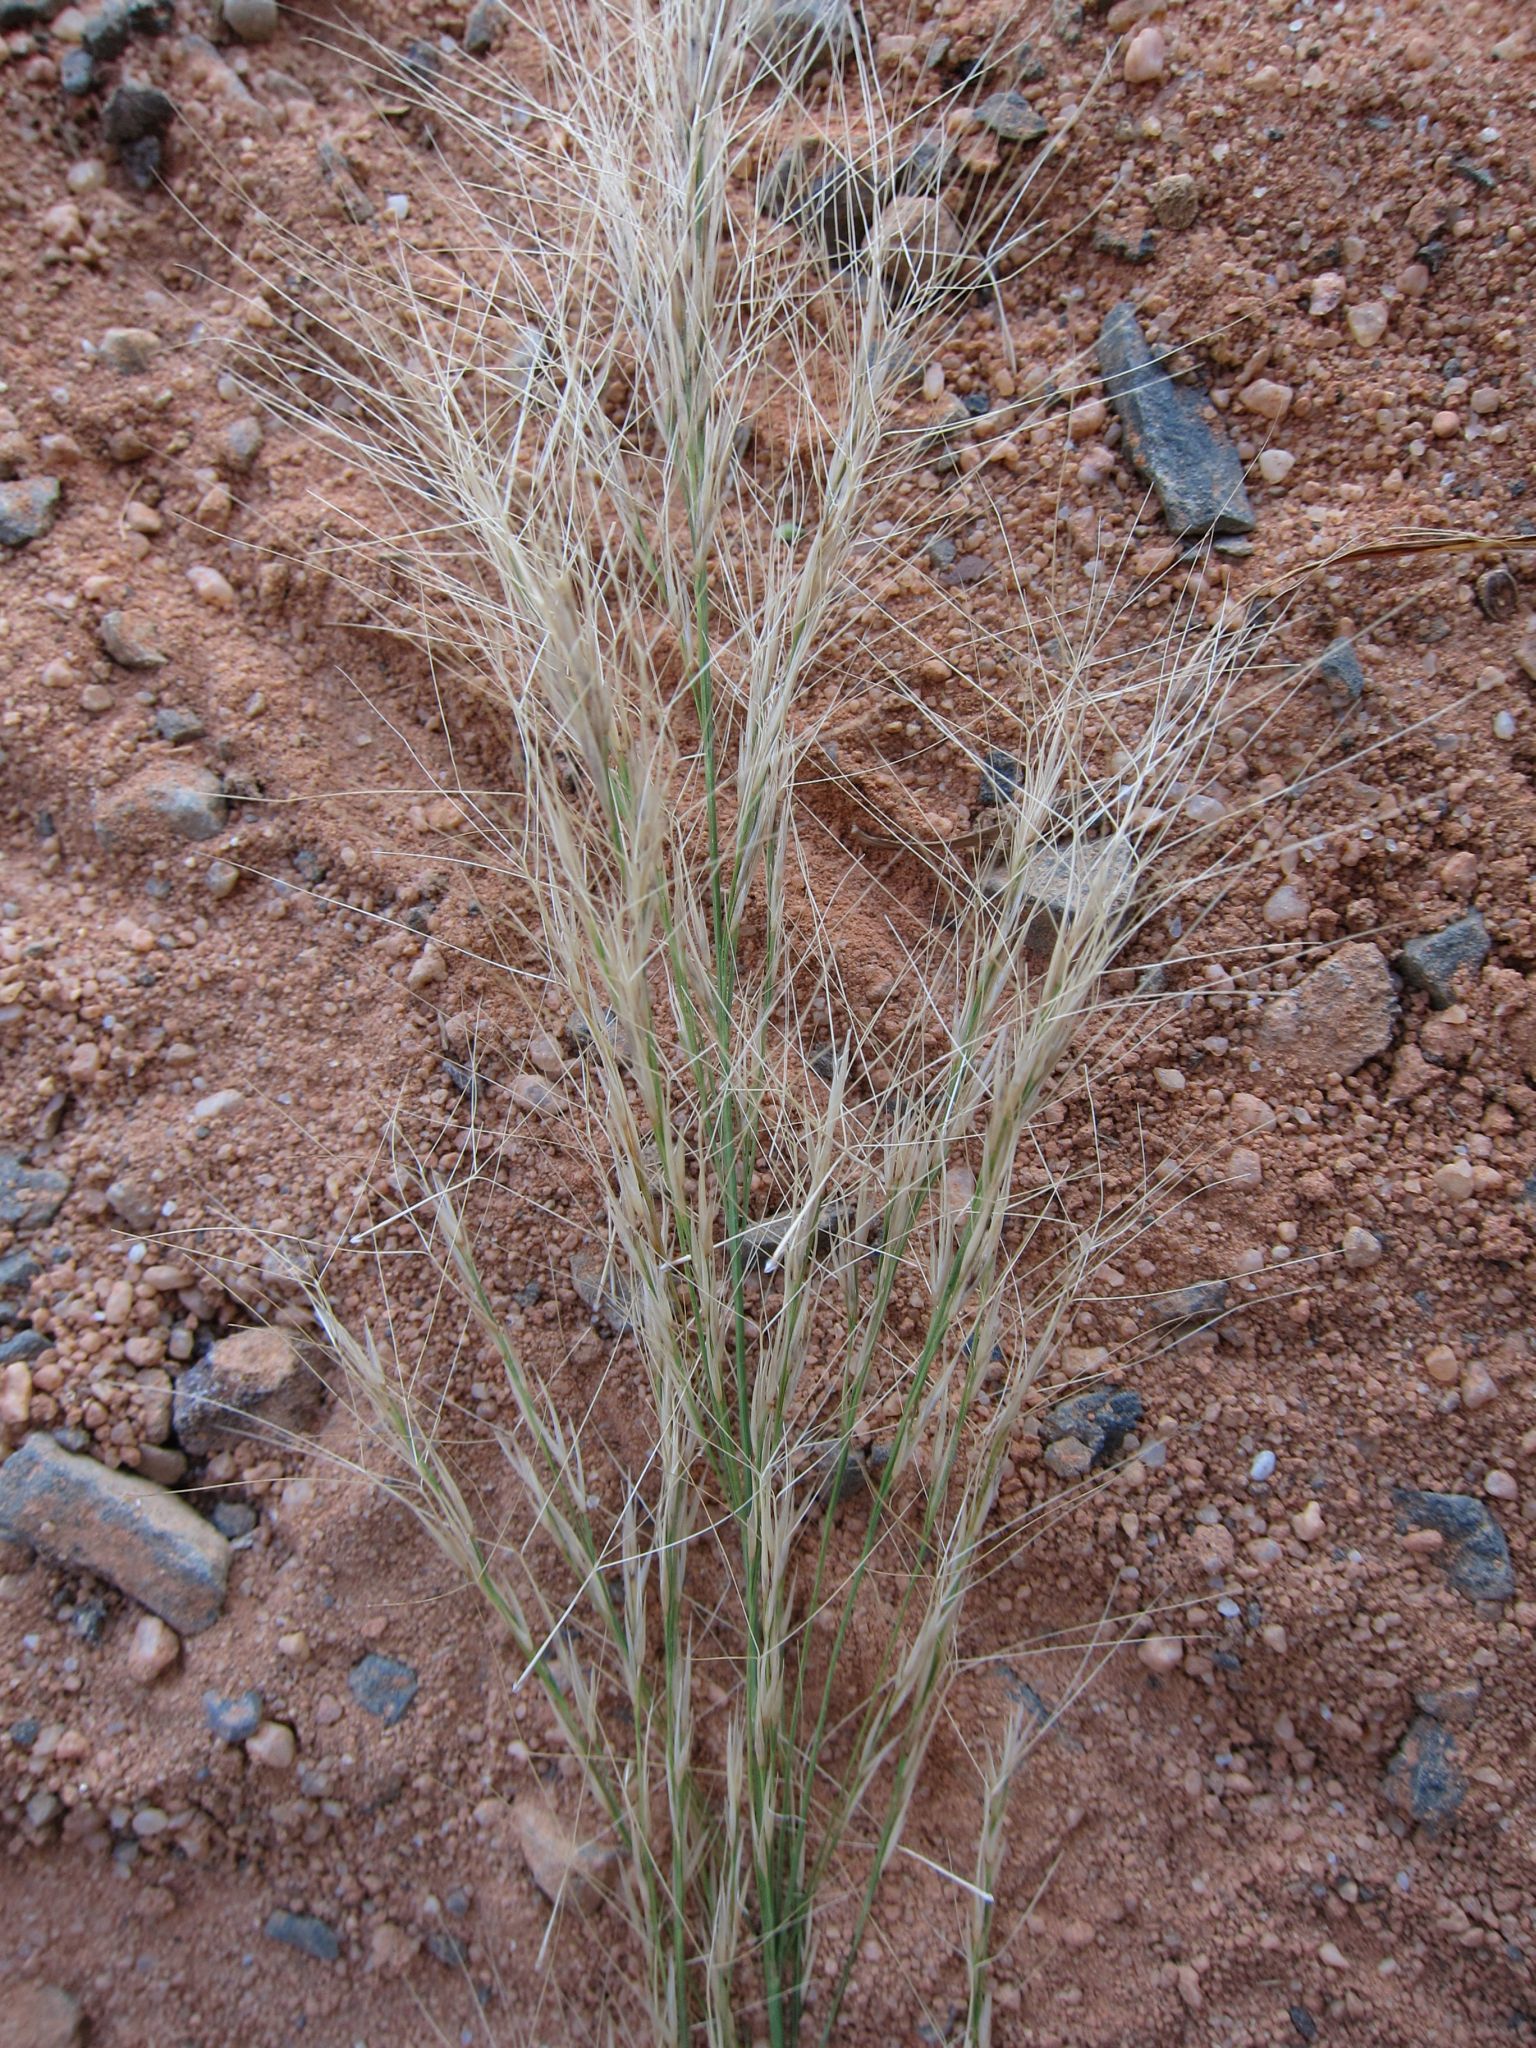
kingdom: Plantae
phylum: Tracheophyta
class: Liliopsida
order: Poales
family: Poaceae
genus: Aristida
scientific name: Aristida rufescens
